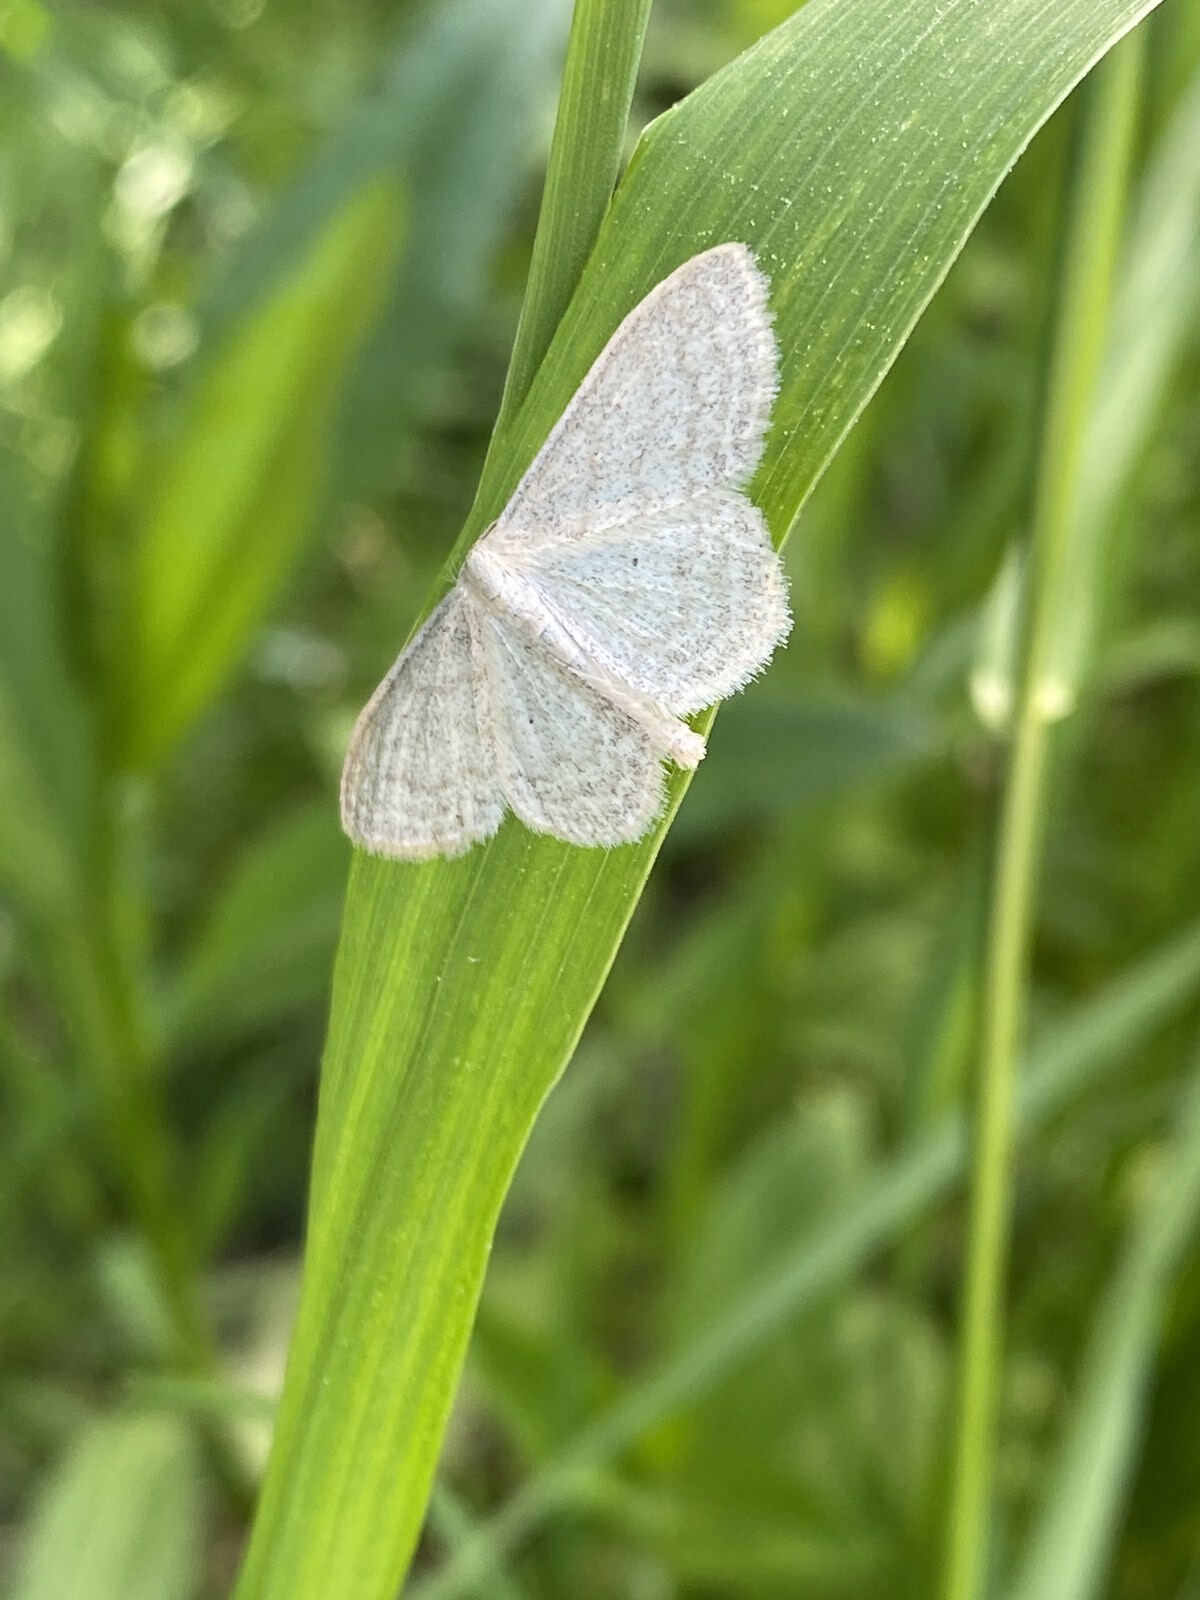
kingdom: Animalia
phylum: Arthropoda
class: Insecta
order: Lepidoptera
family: Geometridae
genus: Scopula
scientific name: Scopula floslactata
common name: Cream wave
